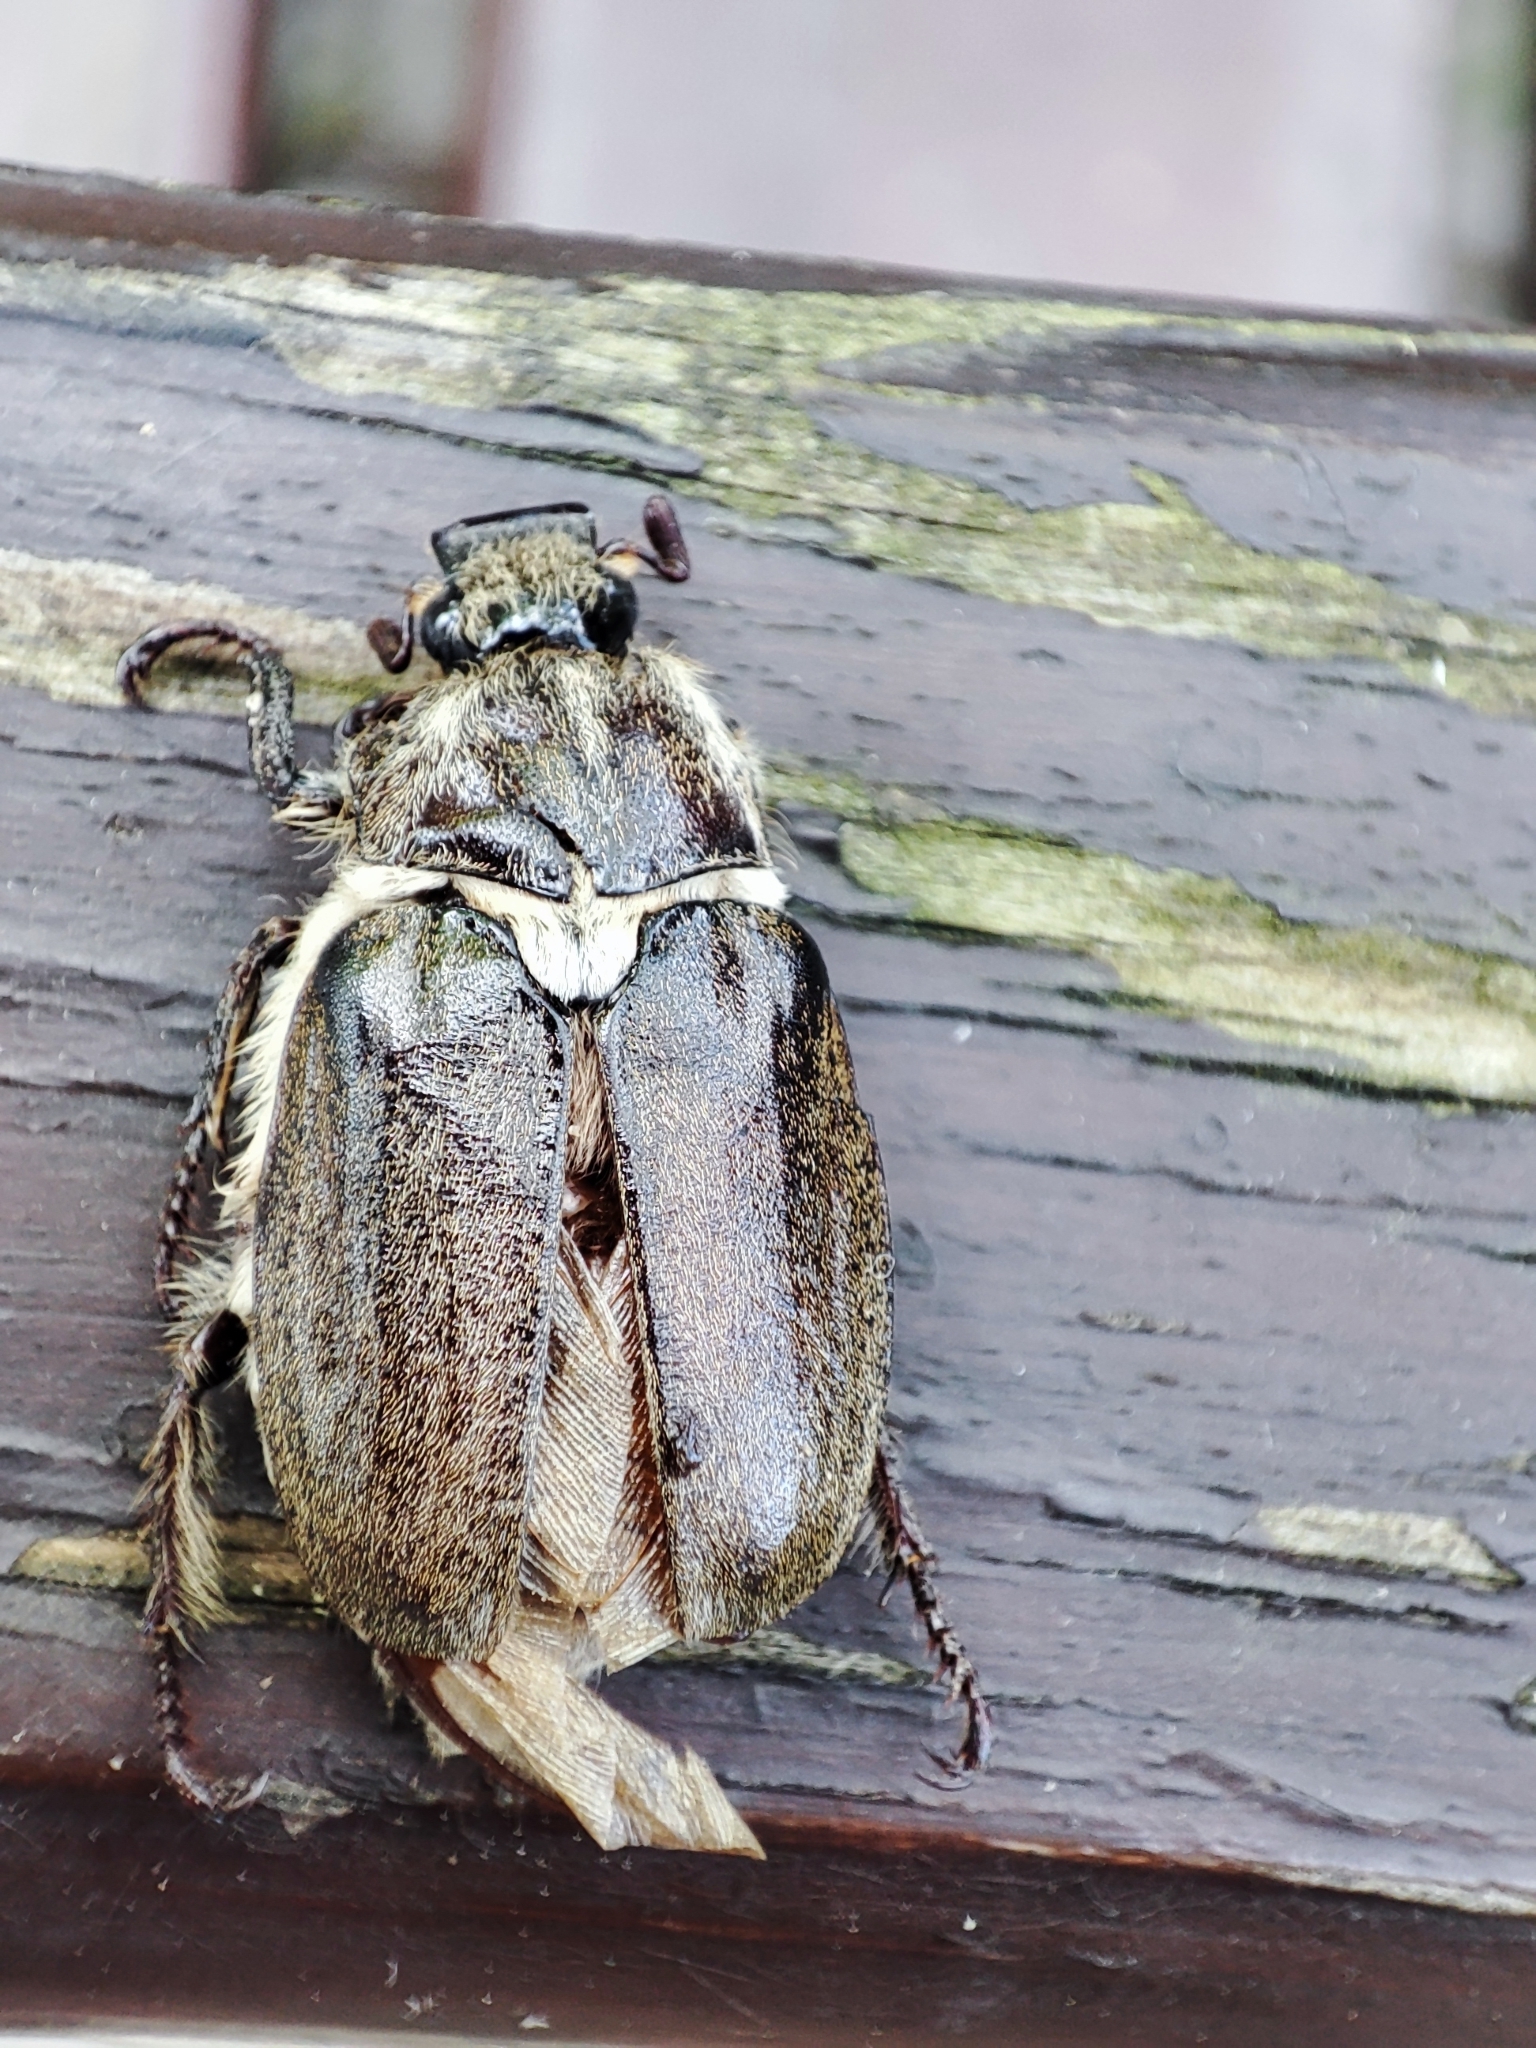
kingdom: Animalia
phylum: Arthropoda
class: Insecta
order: Coleoptera
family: Scarabaeidae
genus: Anoxia
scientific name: Anoxia pilosa
